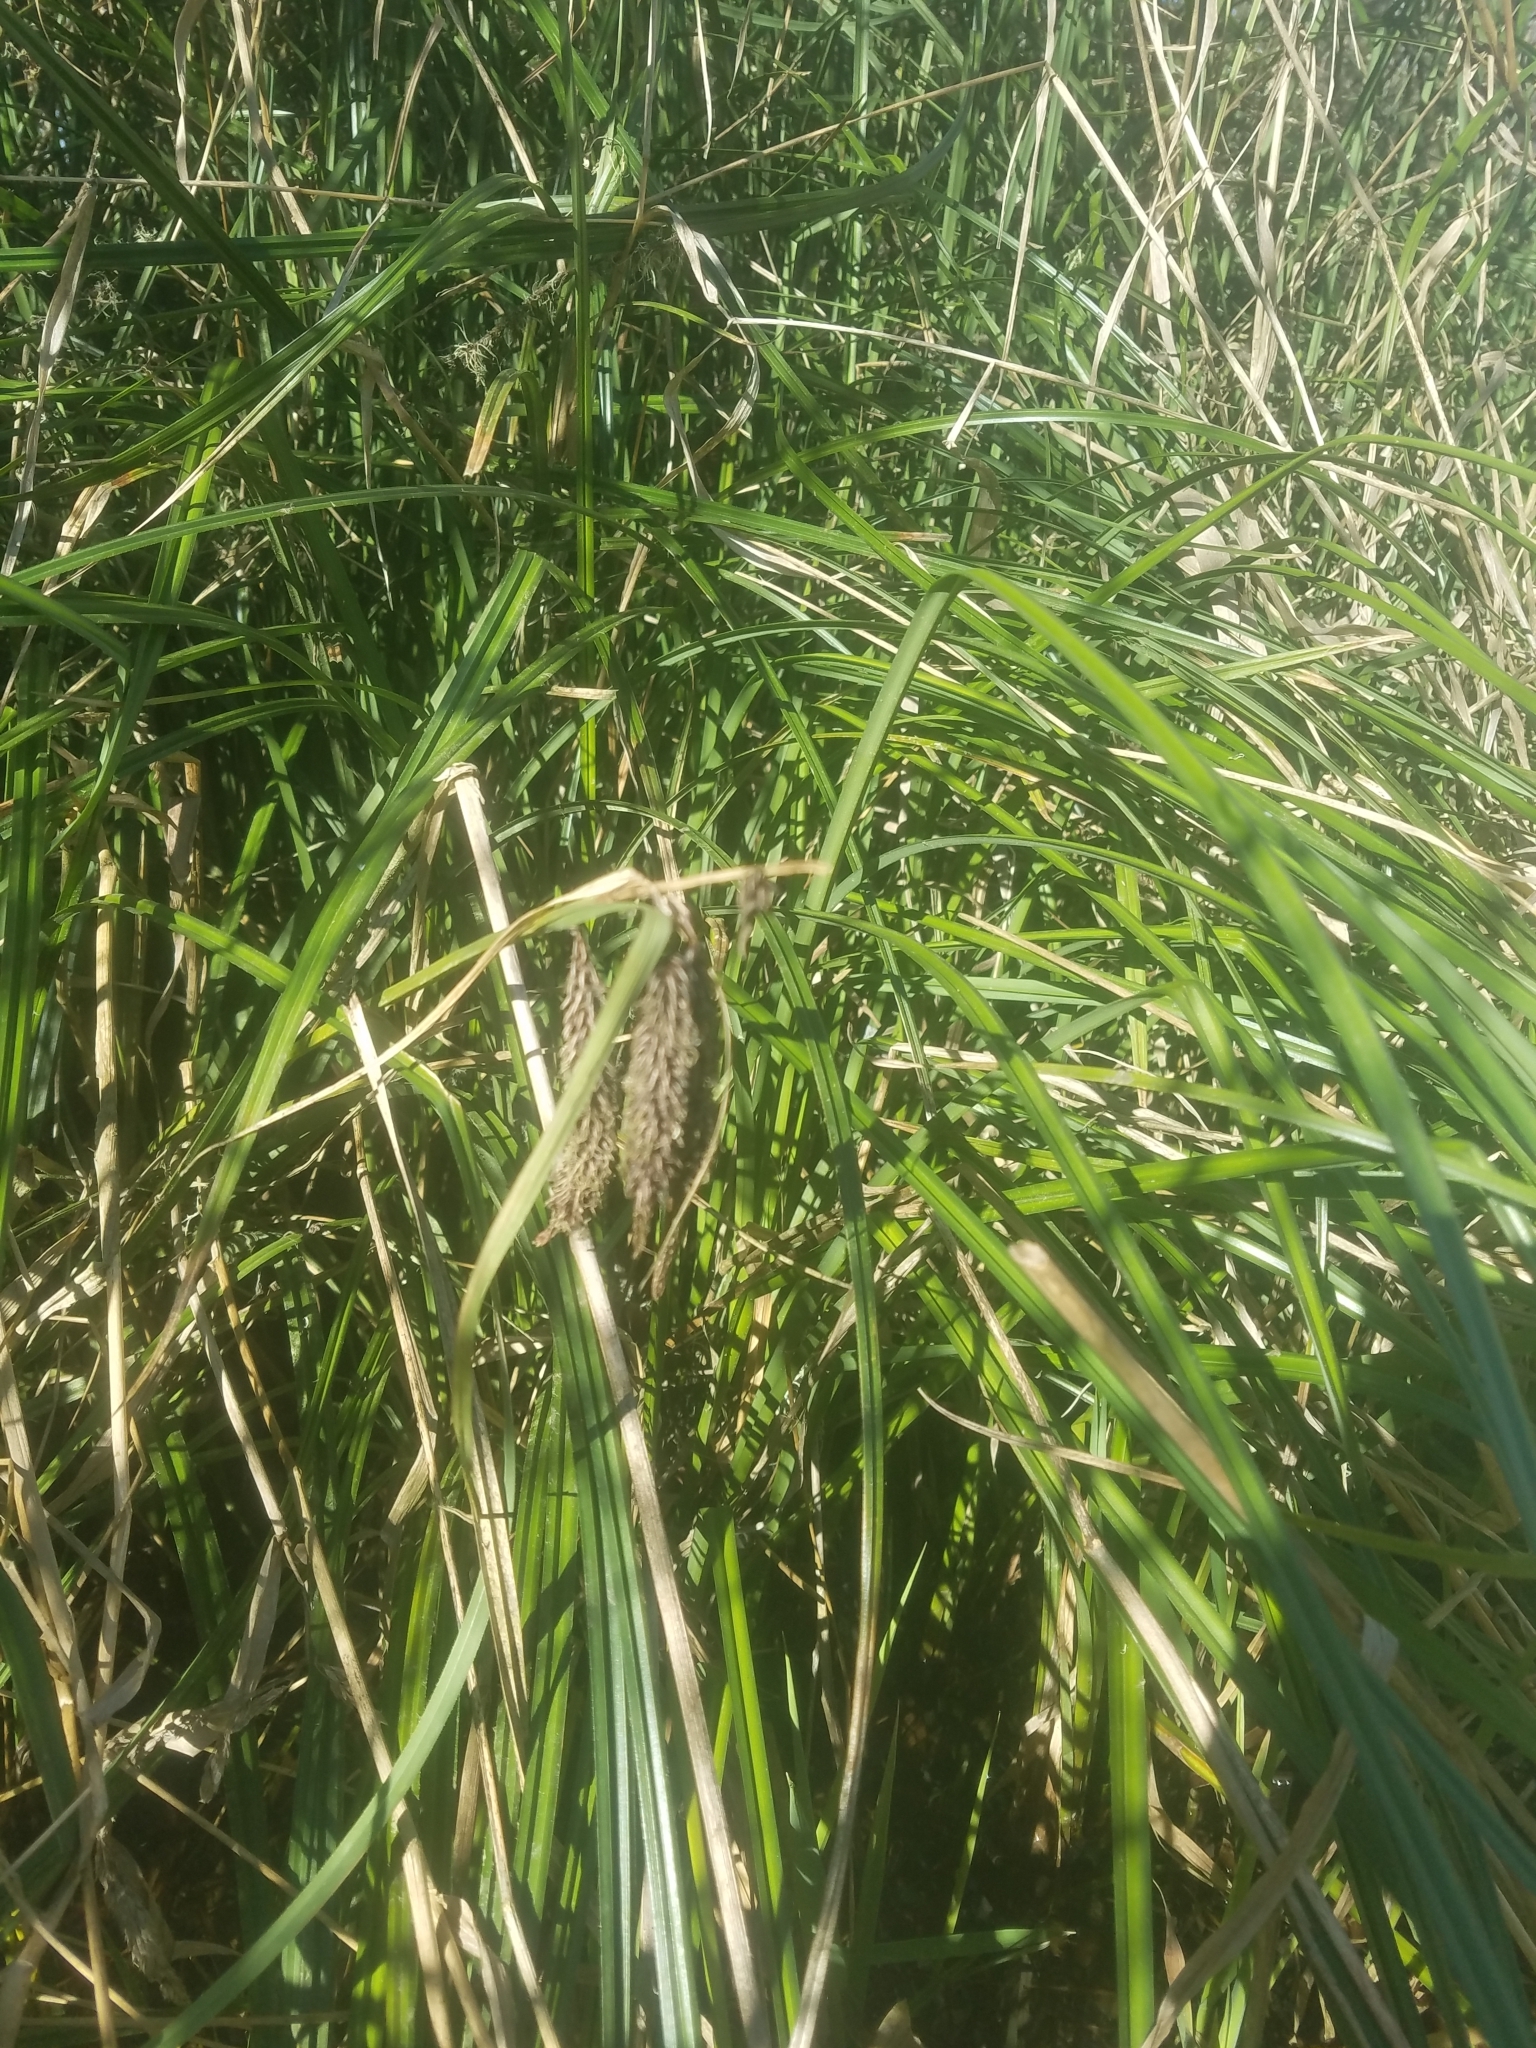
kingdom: Plantae
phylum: Tracheophyta
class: Liliopsida
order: Poales
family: Cyperaceae
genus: Carex
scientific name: Carex obnupta
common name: Slough sedge
